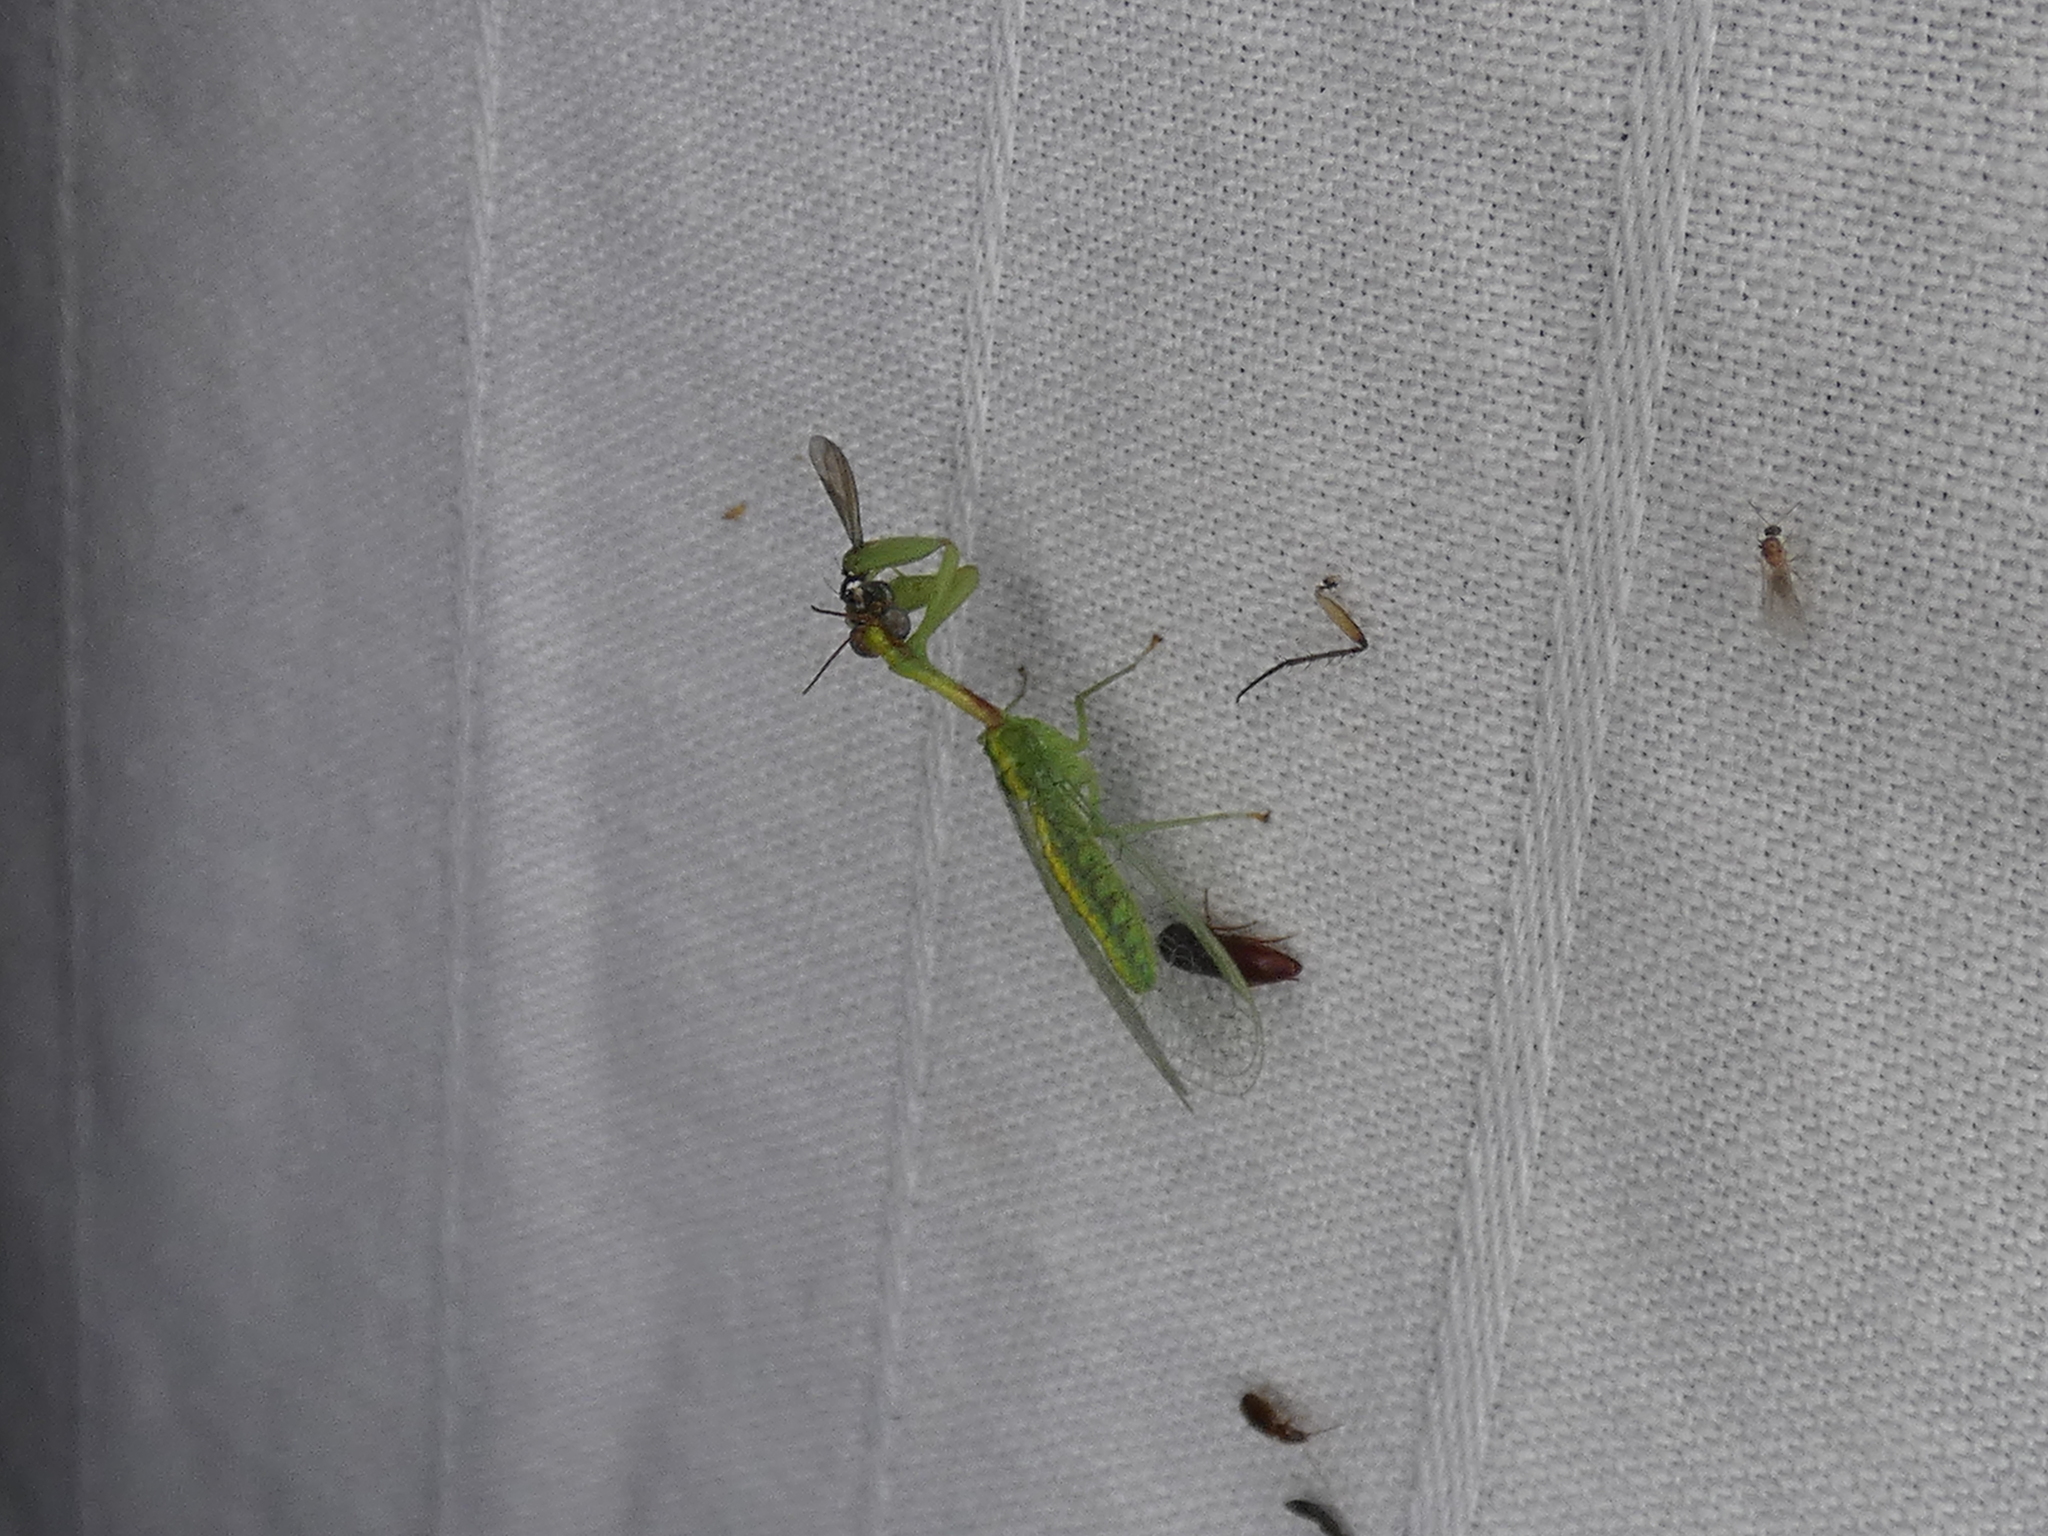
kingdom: Animalia
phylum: Arthropoda
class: Insecta
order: Neuroptera
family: Mantispidae
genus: Zeugomantispa
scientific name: Zeugomantispa minuta
